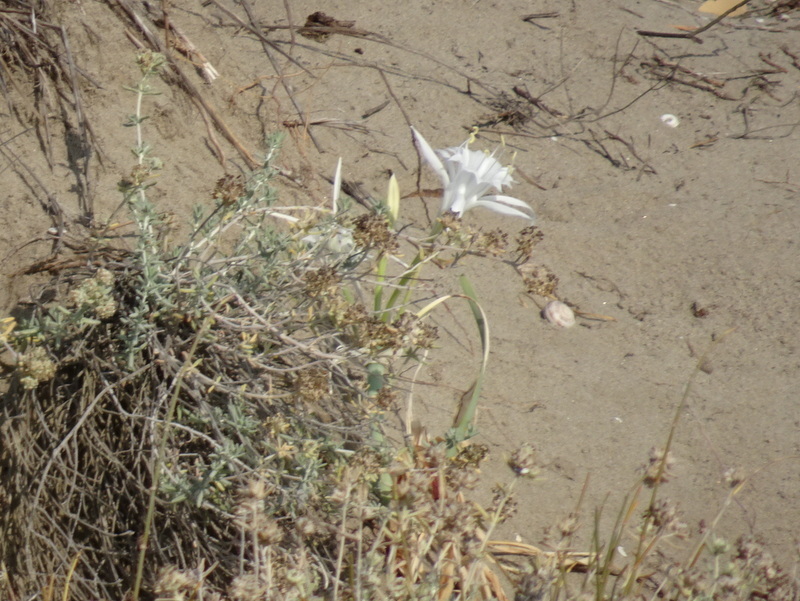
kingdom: Plantae
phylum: Tracheophyta
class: Liliopsida
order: Asparagales
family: Amaryllidaceae
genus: Pancratium
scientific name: Pancratium maritimum
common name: Sea-daffodil
